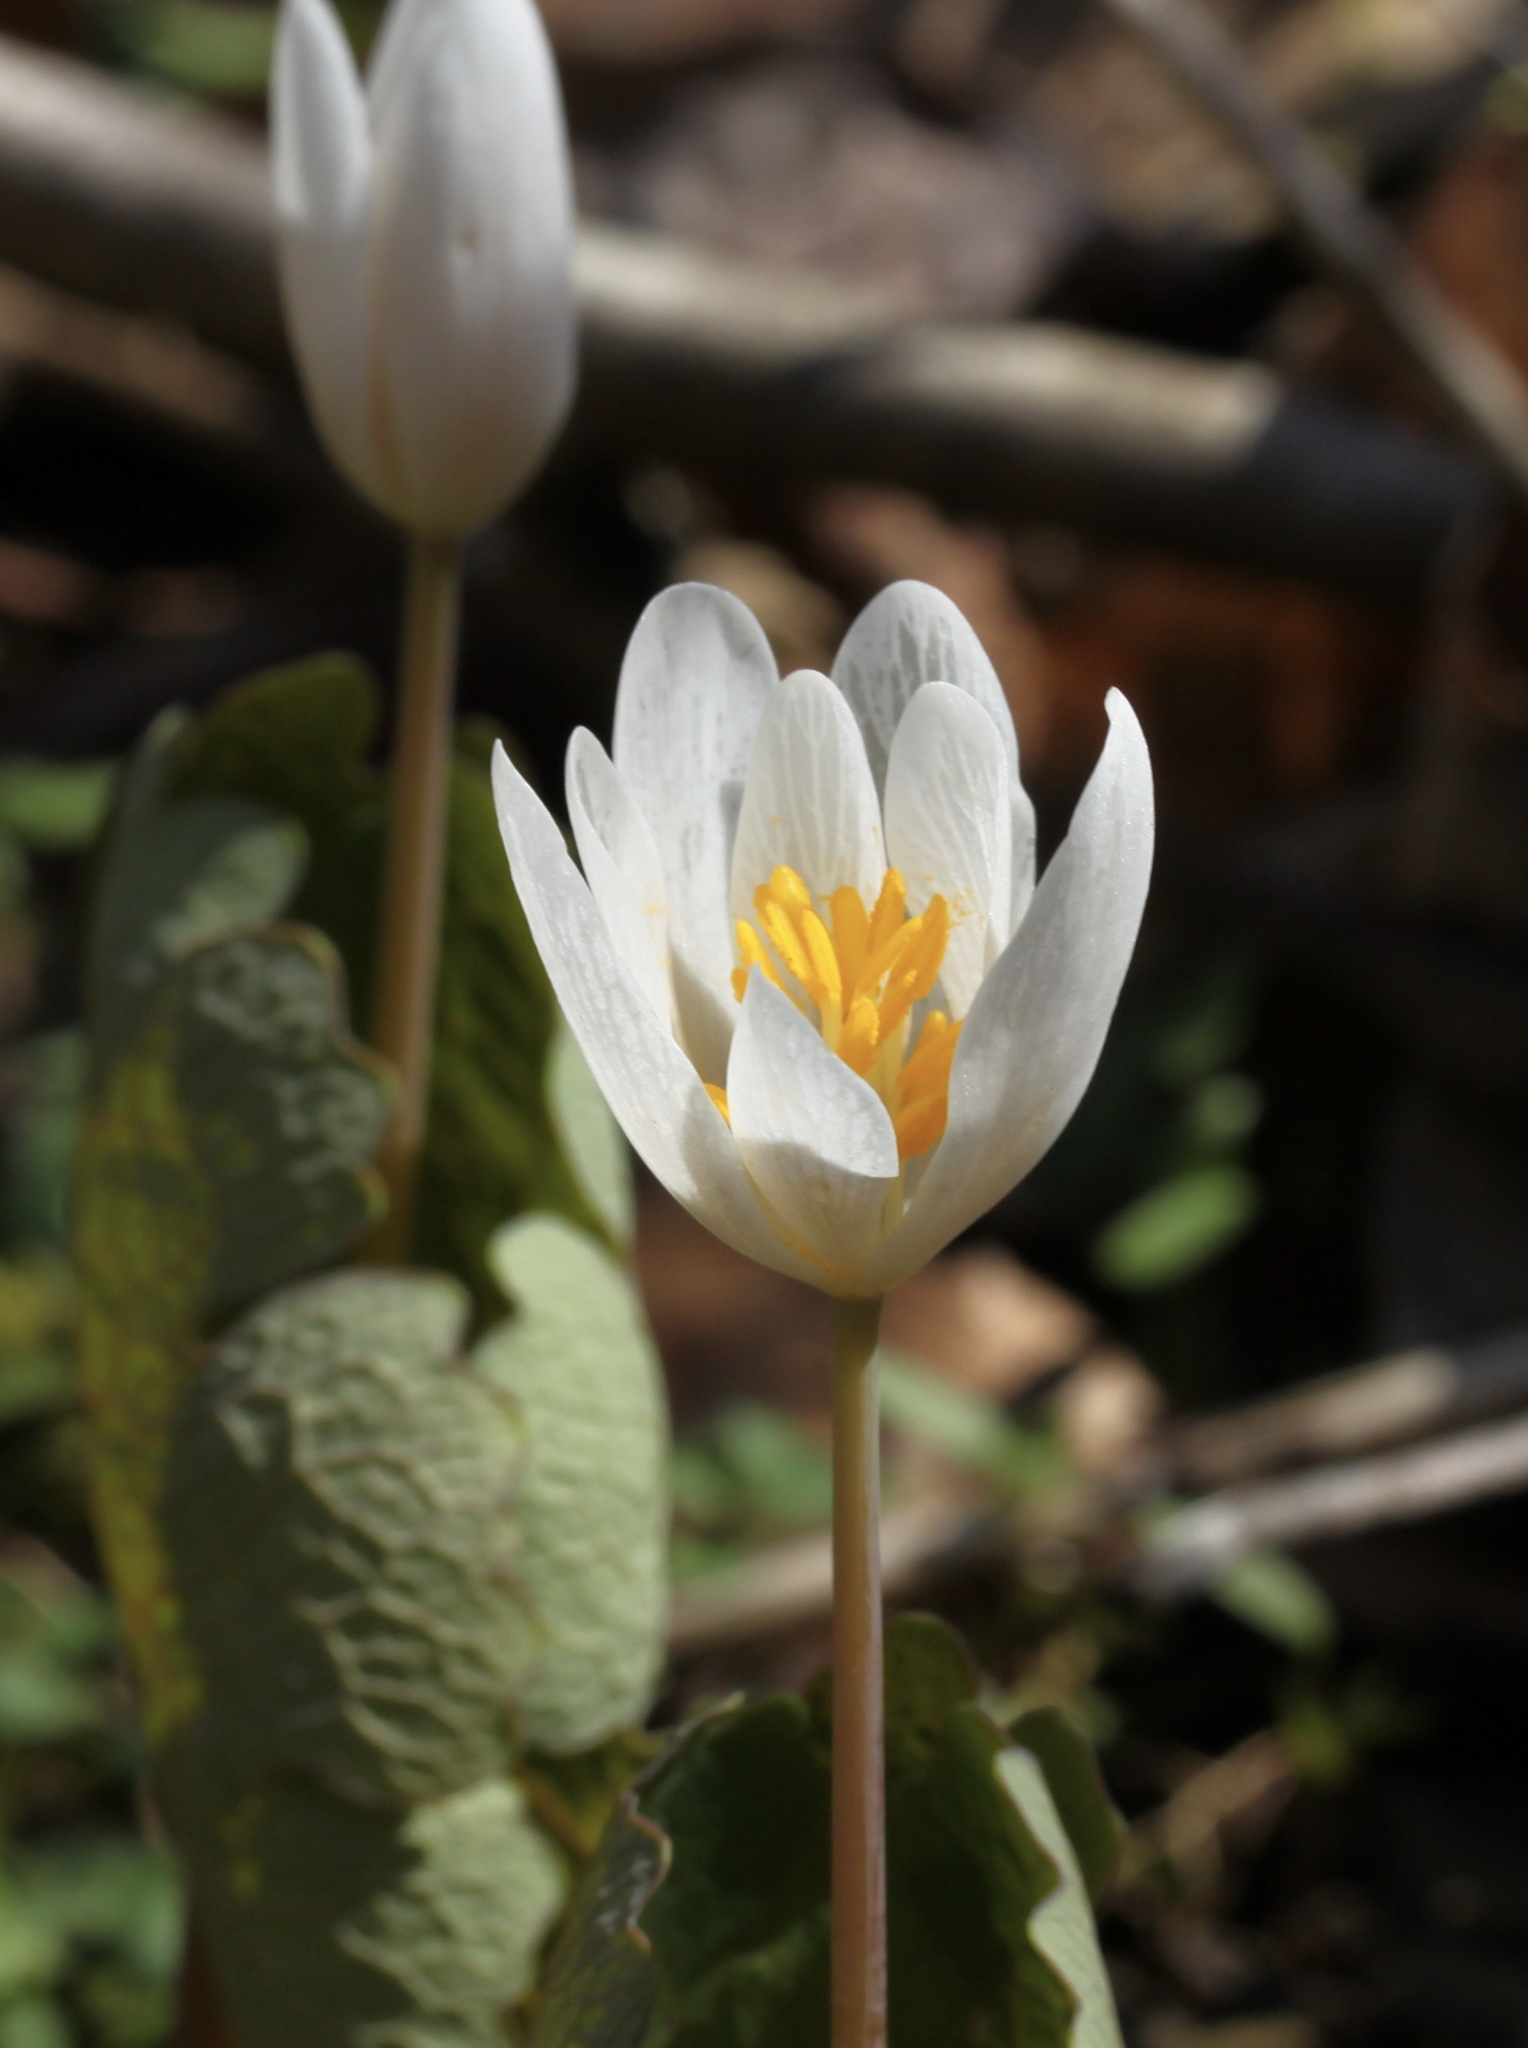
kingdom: Plantae
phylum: Tracheophyta
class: Magnoliopsida
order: Ranunculales
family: Papaveraceae
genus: Sanguinaria
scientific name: Sanguinaria canadensis
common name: Bloodroot
